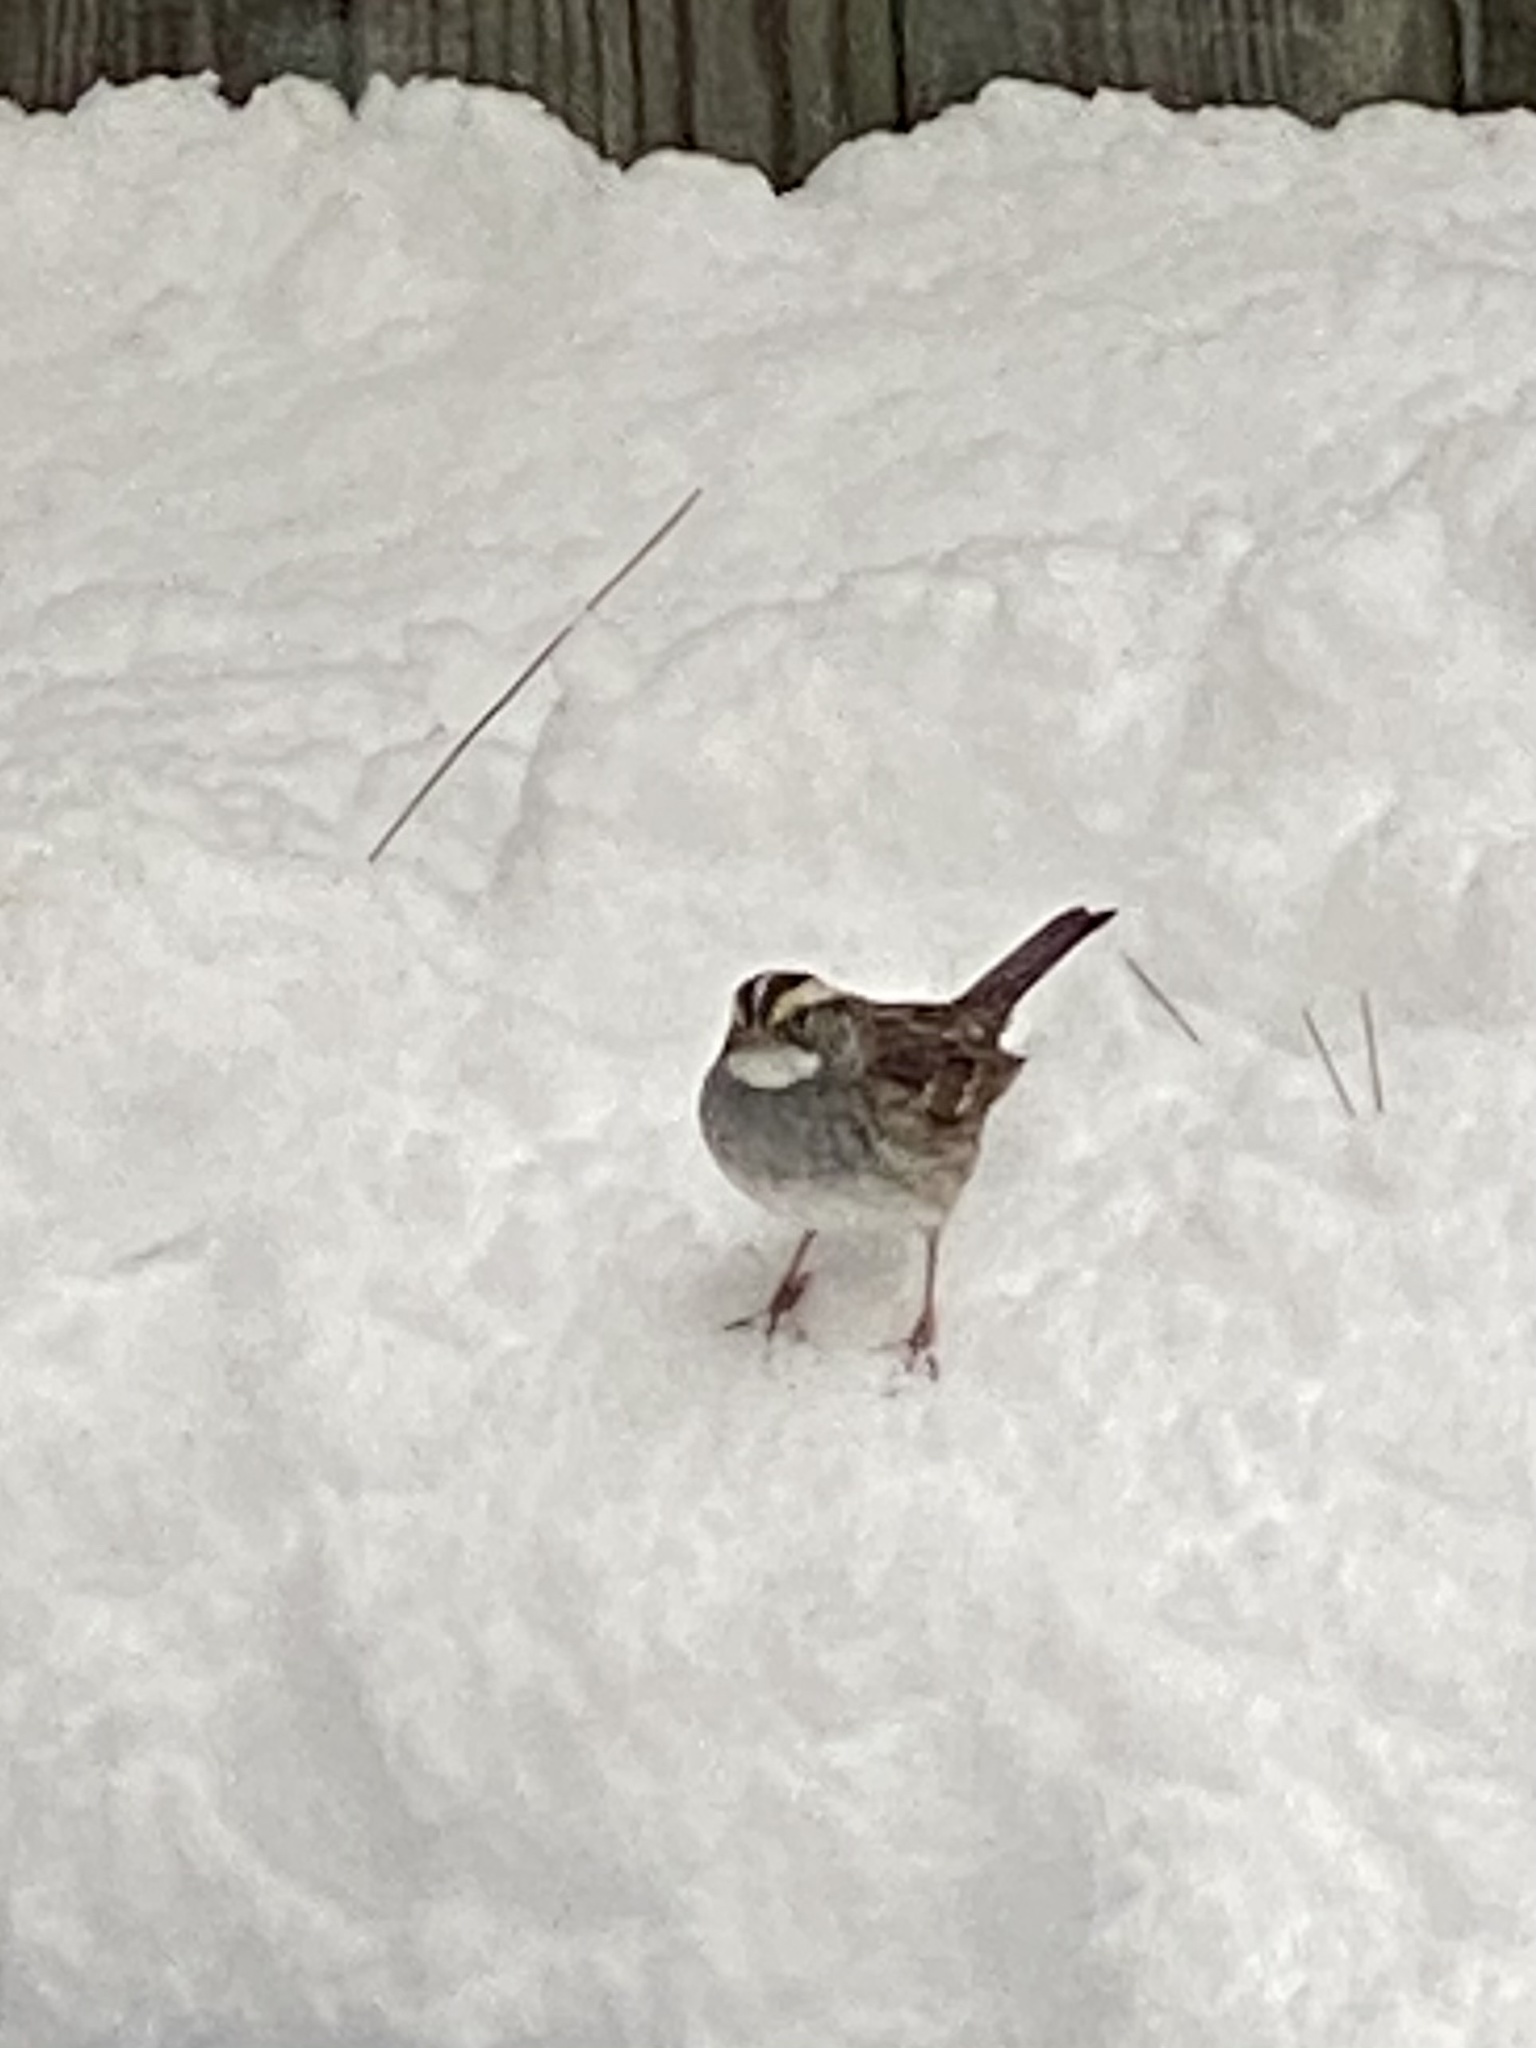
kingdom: Animalia
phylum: Chordata
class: Aves
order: Passeriformes
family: Passerellidae
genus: Zonotrichia
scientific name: Zonotrichia albicollis
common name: White-throated sparrow
